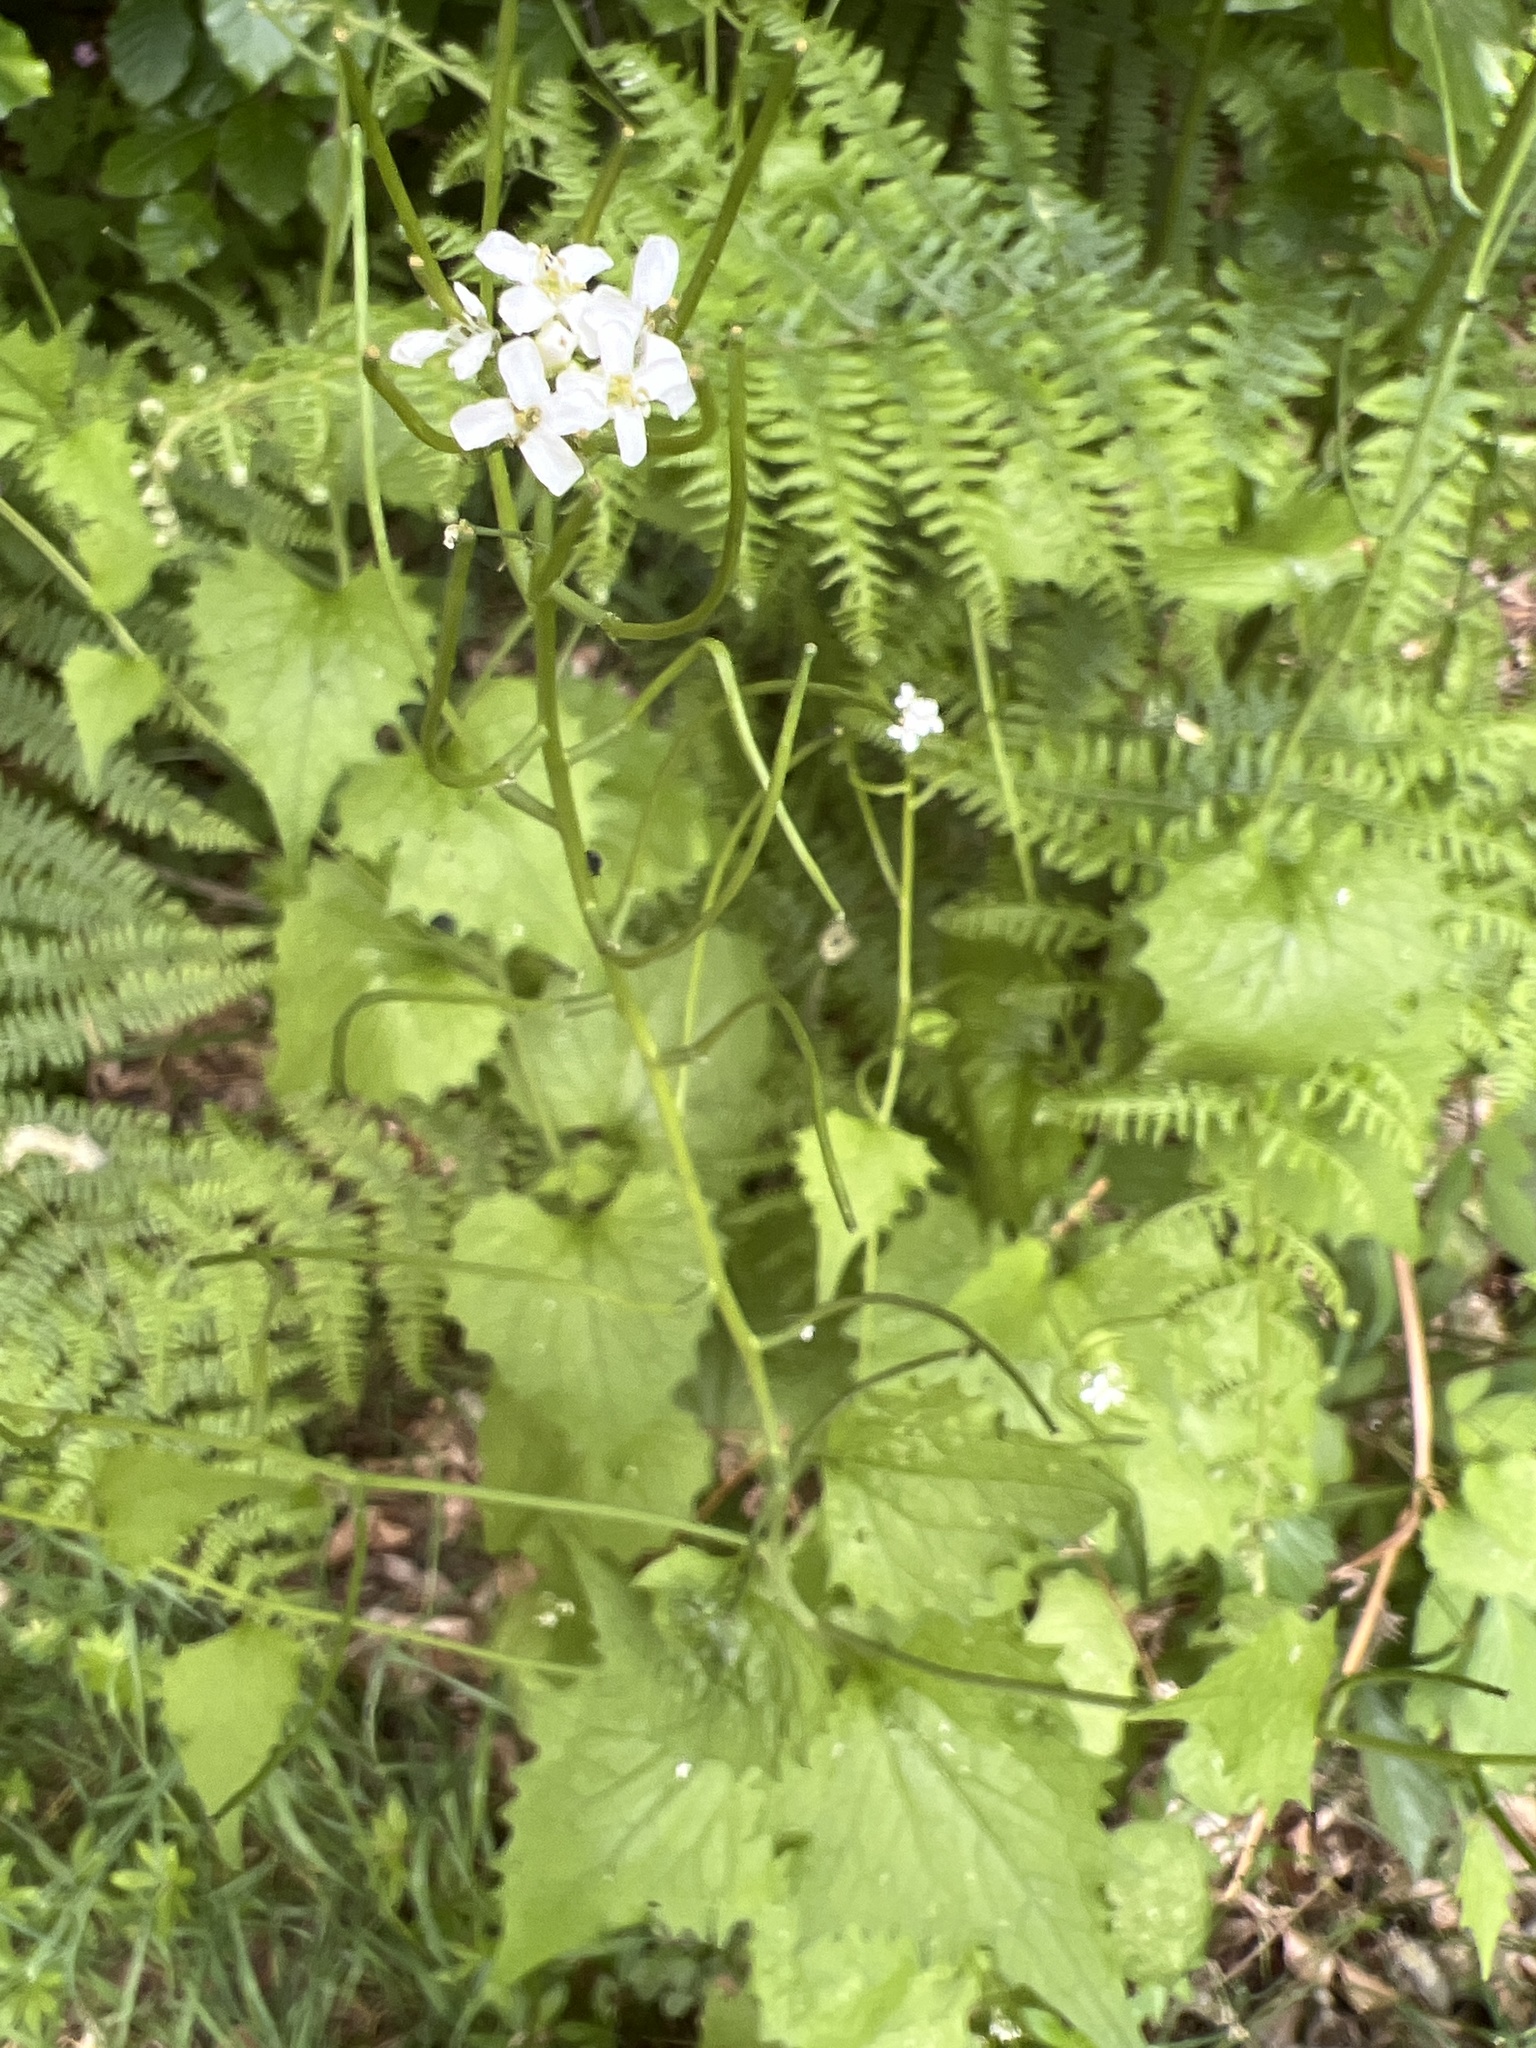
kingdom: Plantae
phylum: Tracheophyta
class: Magnoliopsida
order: Brassicales
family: Brassicaceae
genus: Alliaria
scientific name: Alliaria petiolata
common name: Garlic mustard
